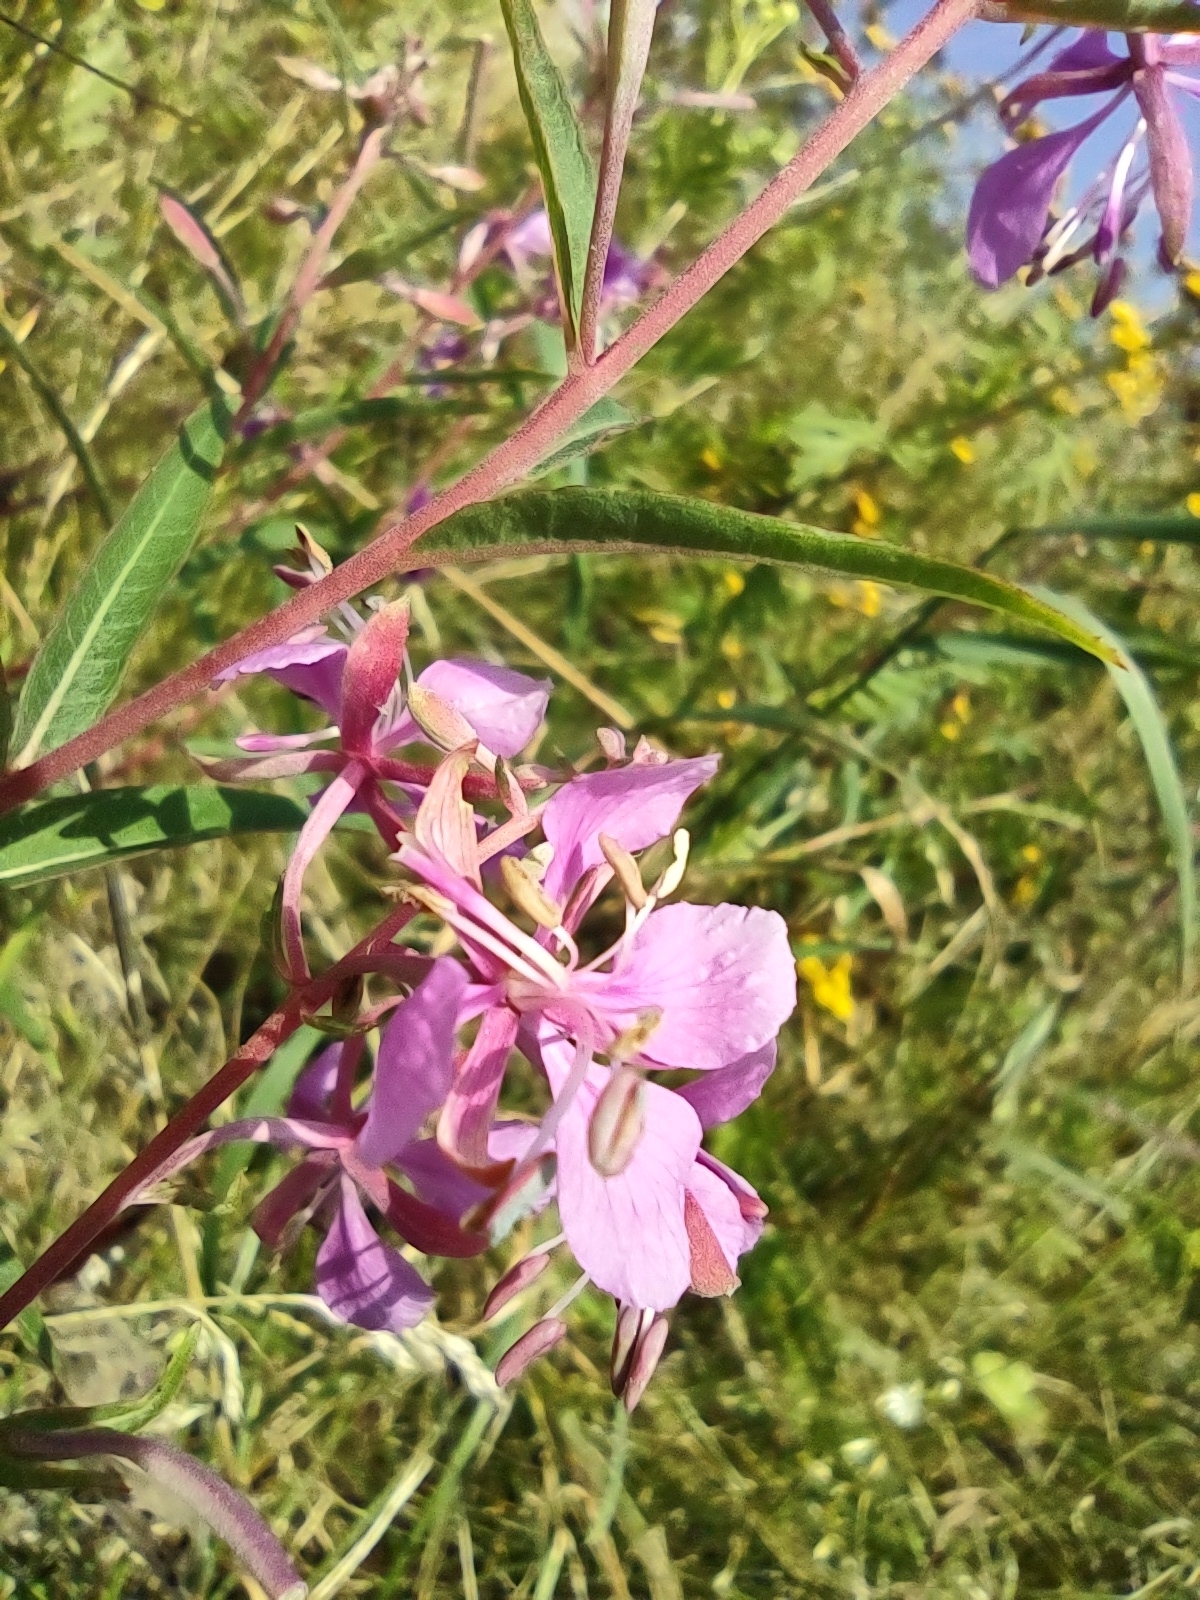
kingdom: Plantae
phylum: Tracheophyta
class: Magnoliopsida
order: Myrtales
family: Onagraceae
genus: Chamaenerion
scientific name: Chamaenerion angustifolium
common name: Fireweed
